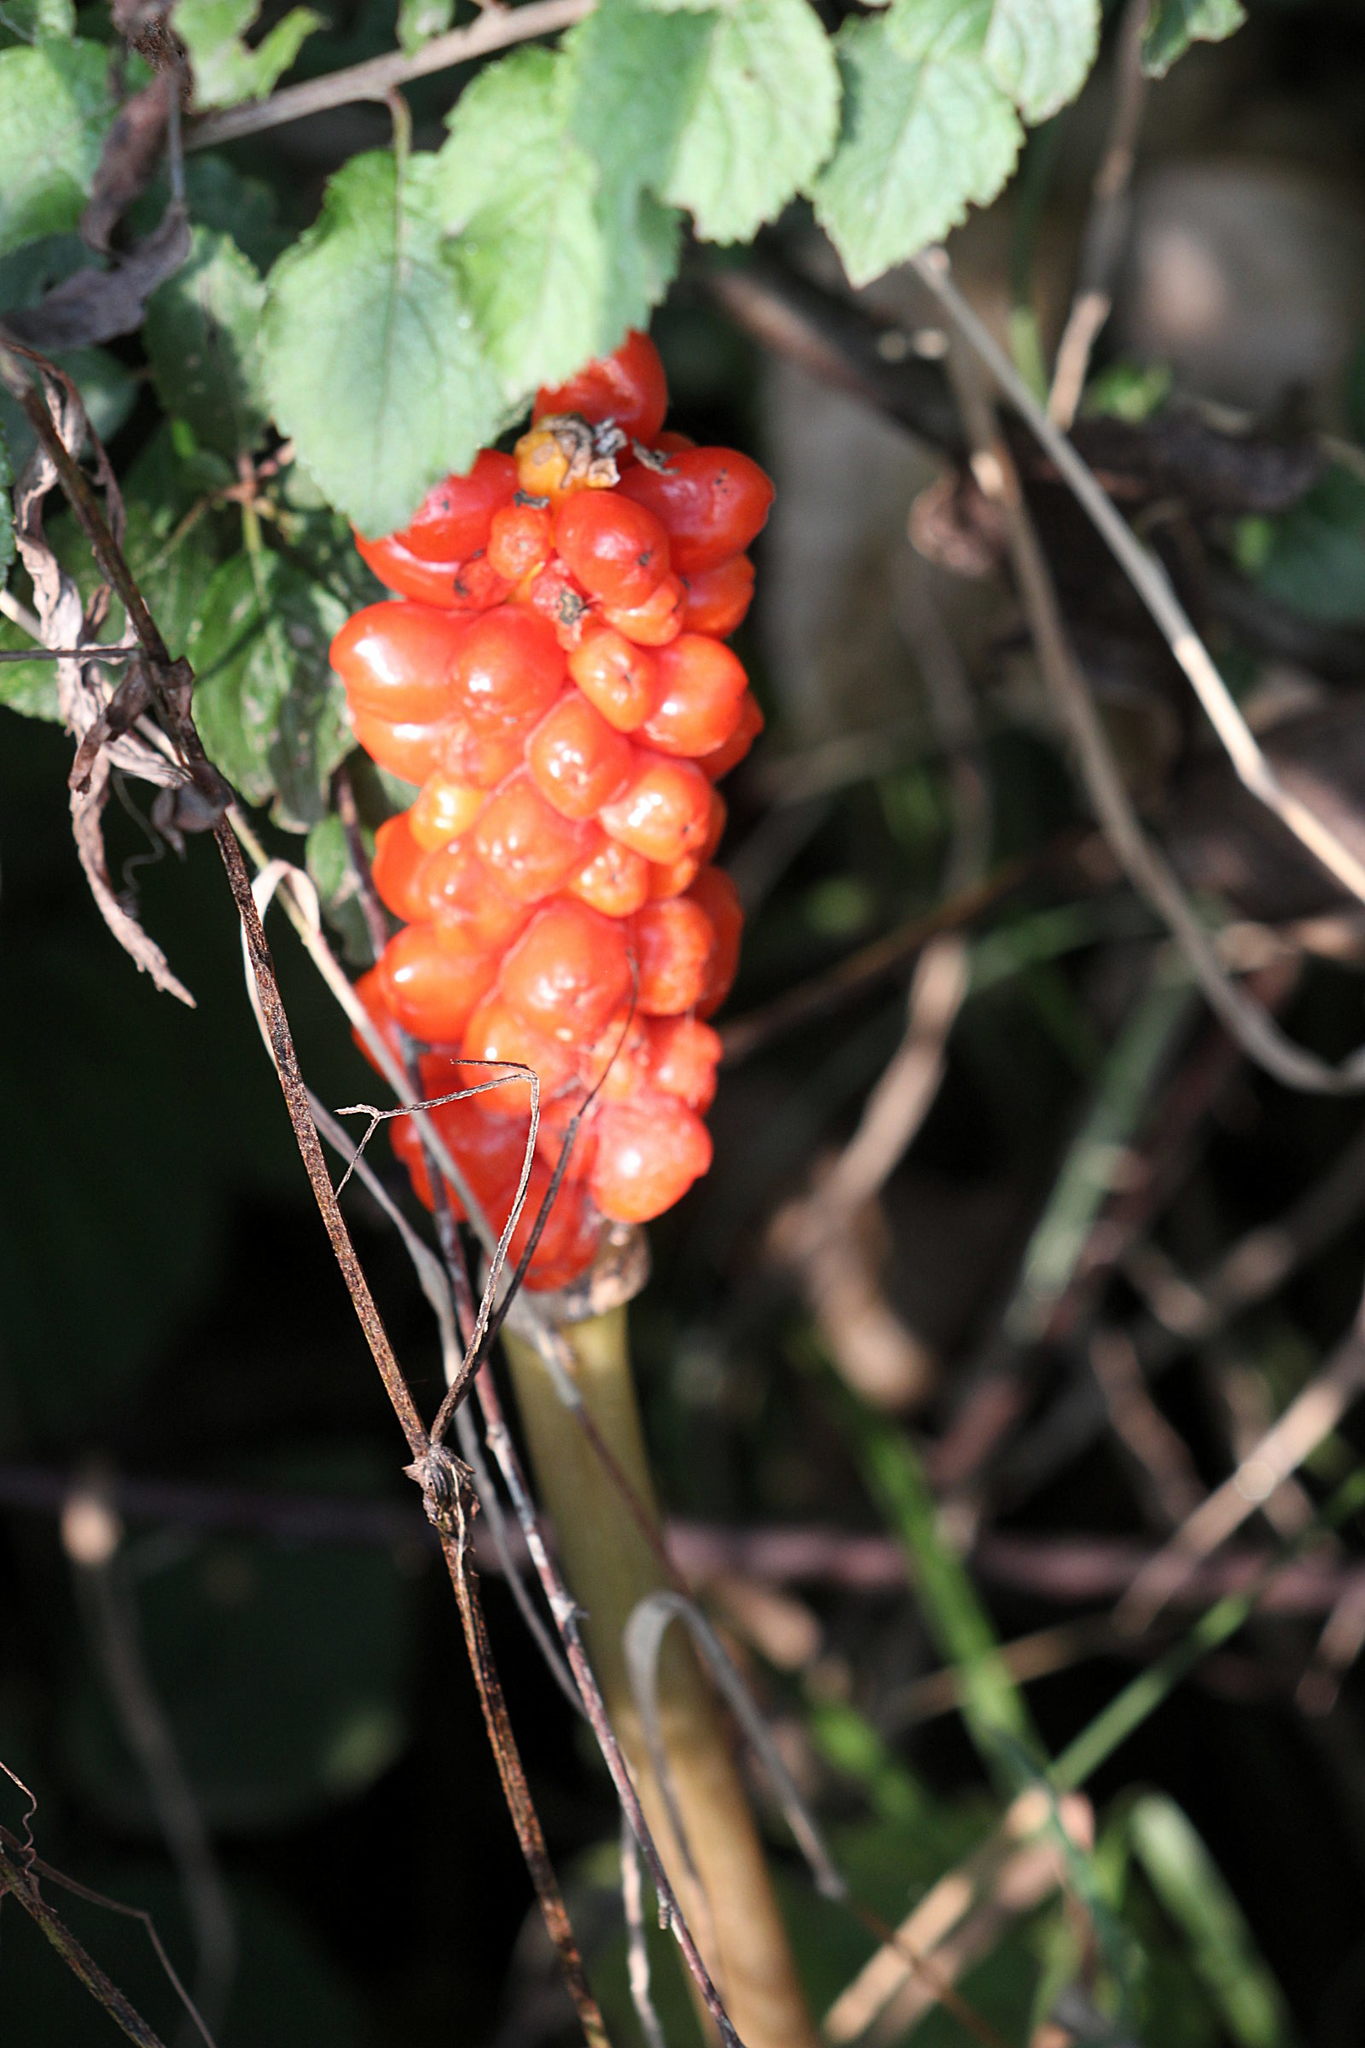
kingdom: Plantae
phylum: Tracheophyta
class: Liliopsida
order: Alismatales
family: Araceae
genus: Arum
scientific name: Arum maculatum
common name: Lords-and-ladies
